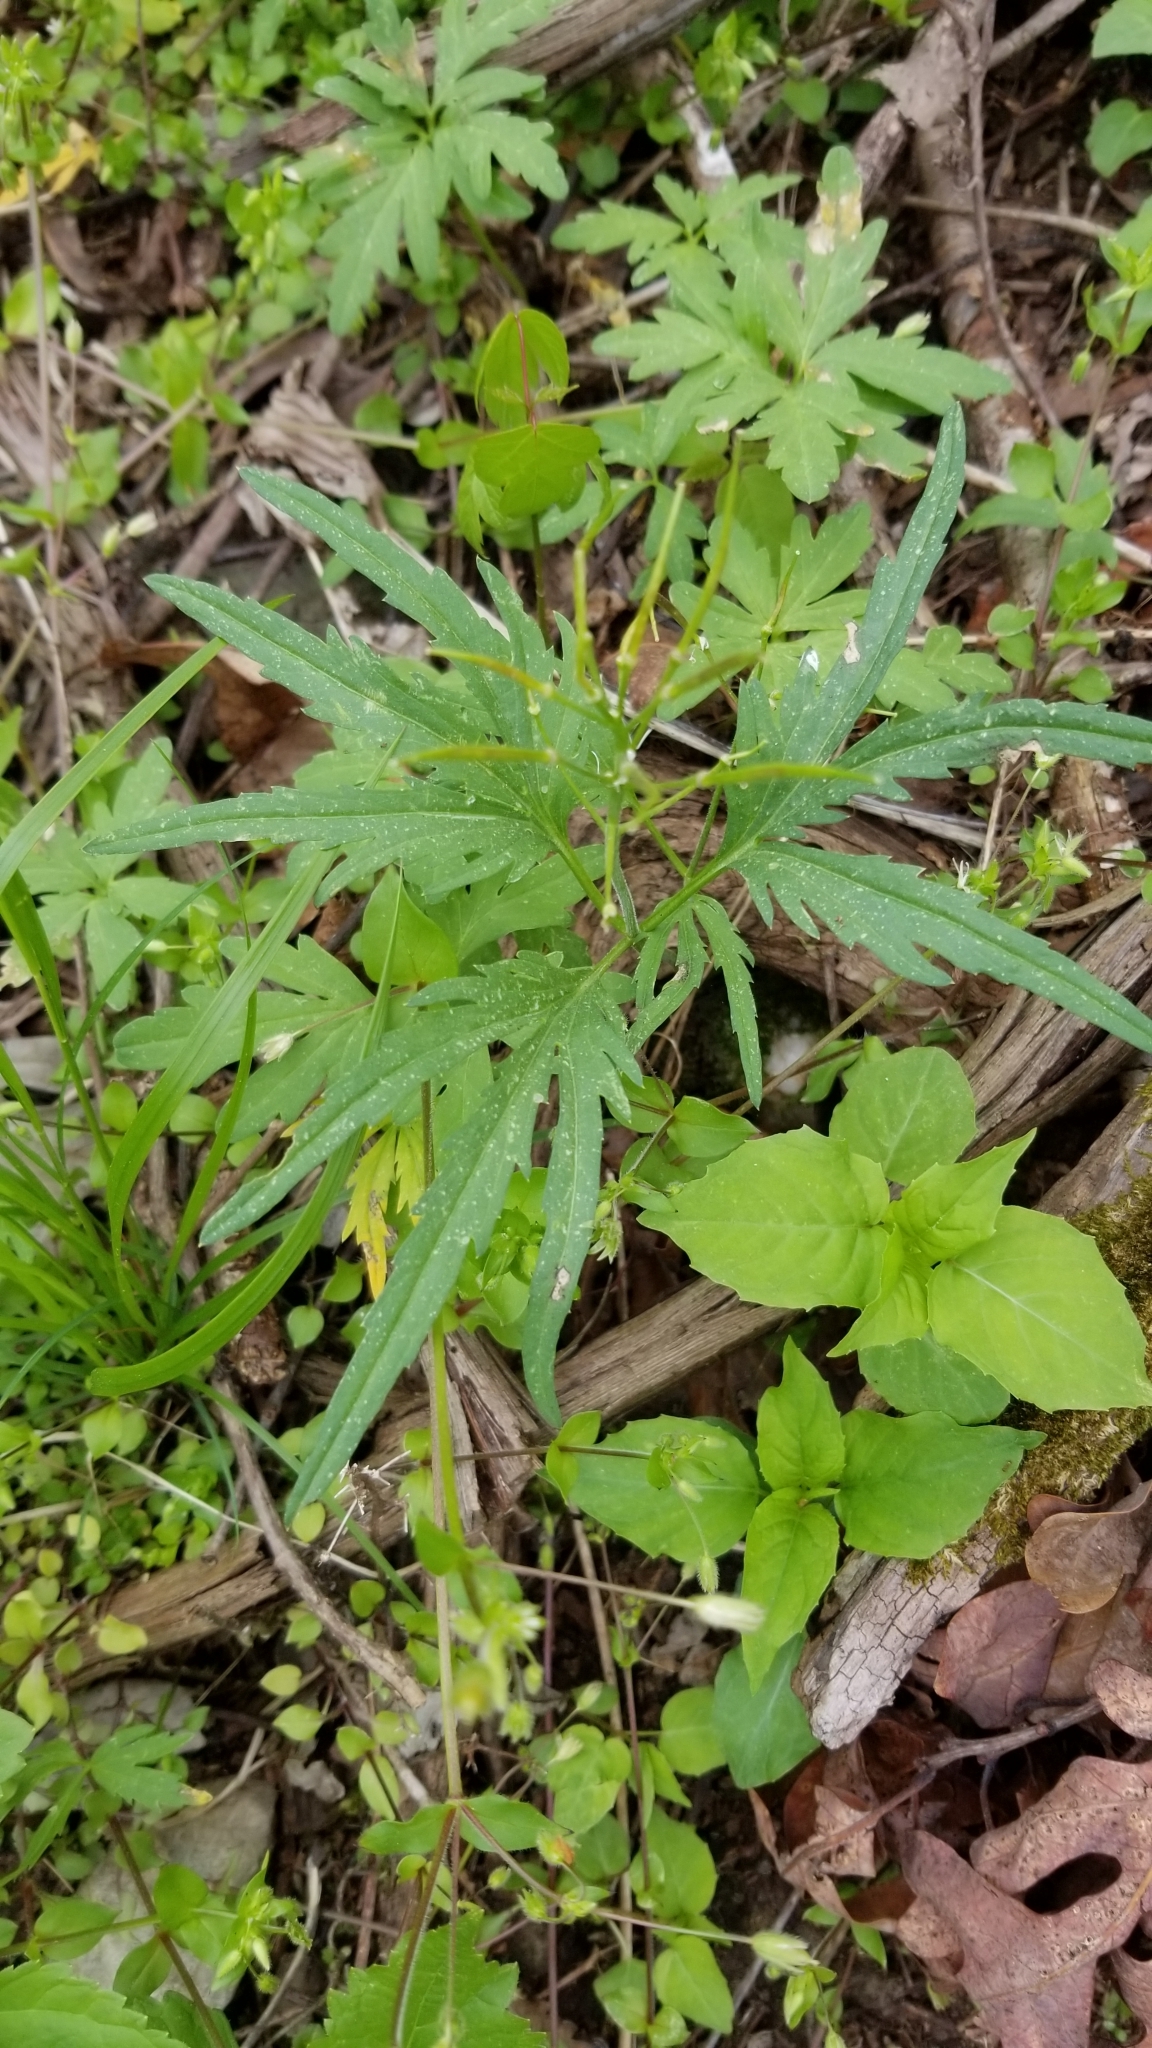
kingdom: Plantae
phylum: Tracheophyta
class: Magnoliopsida
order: Brassicales
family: Brassicaceae
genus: Cardamine
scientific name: Cardamine concatenata
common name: Cut-leaf toothcup
